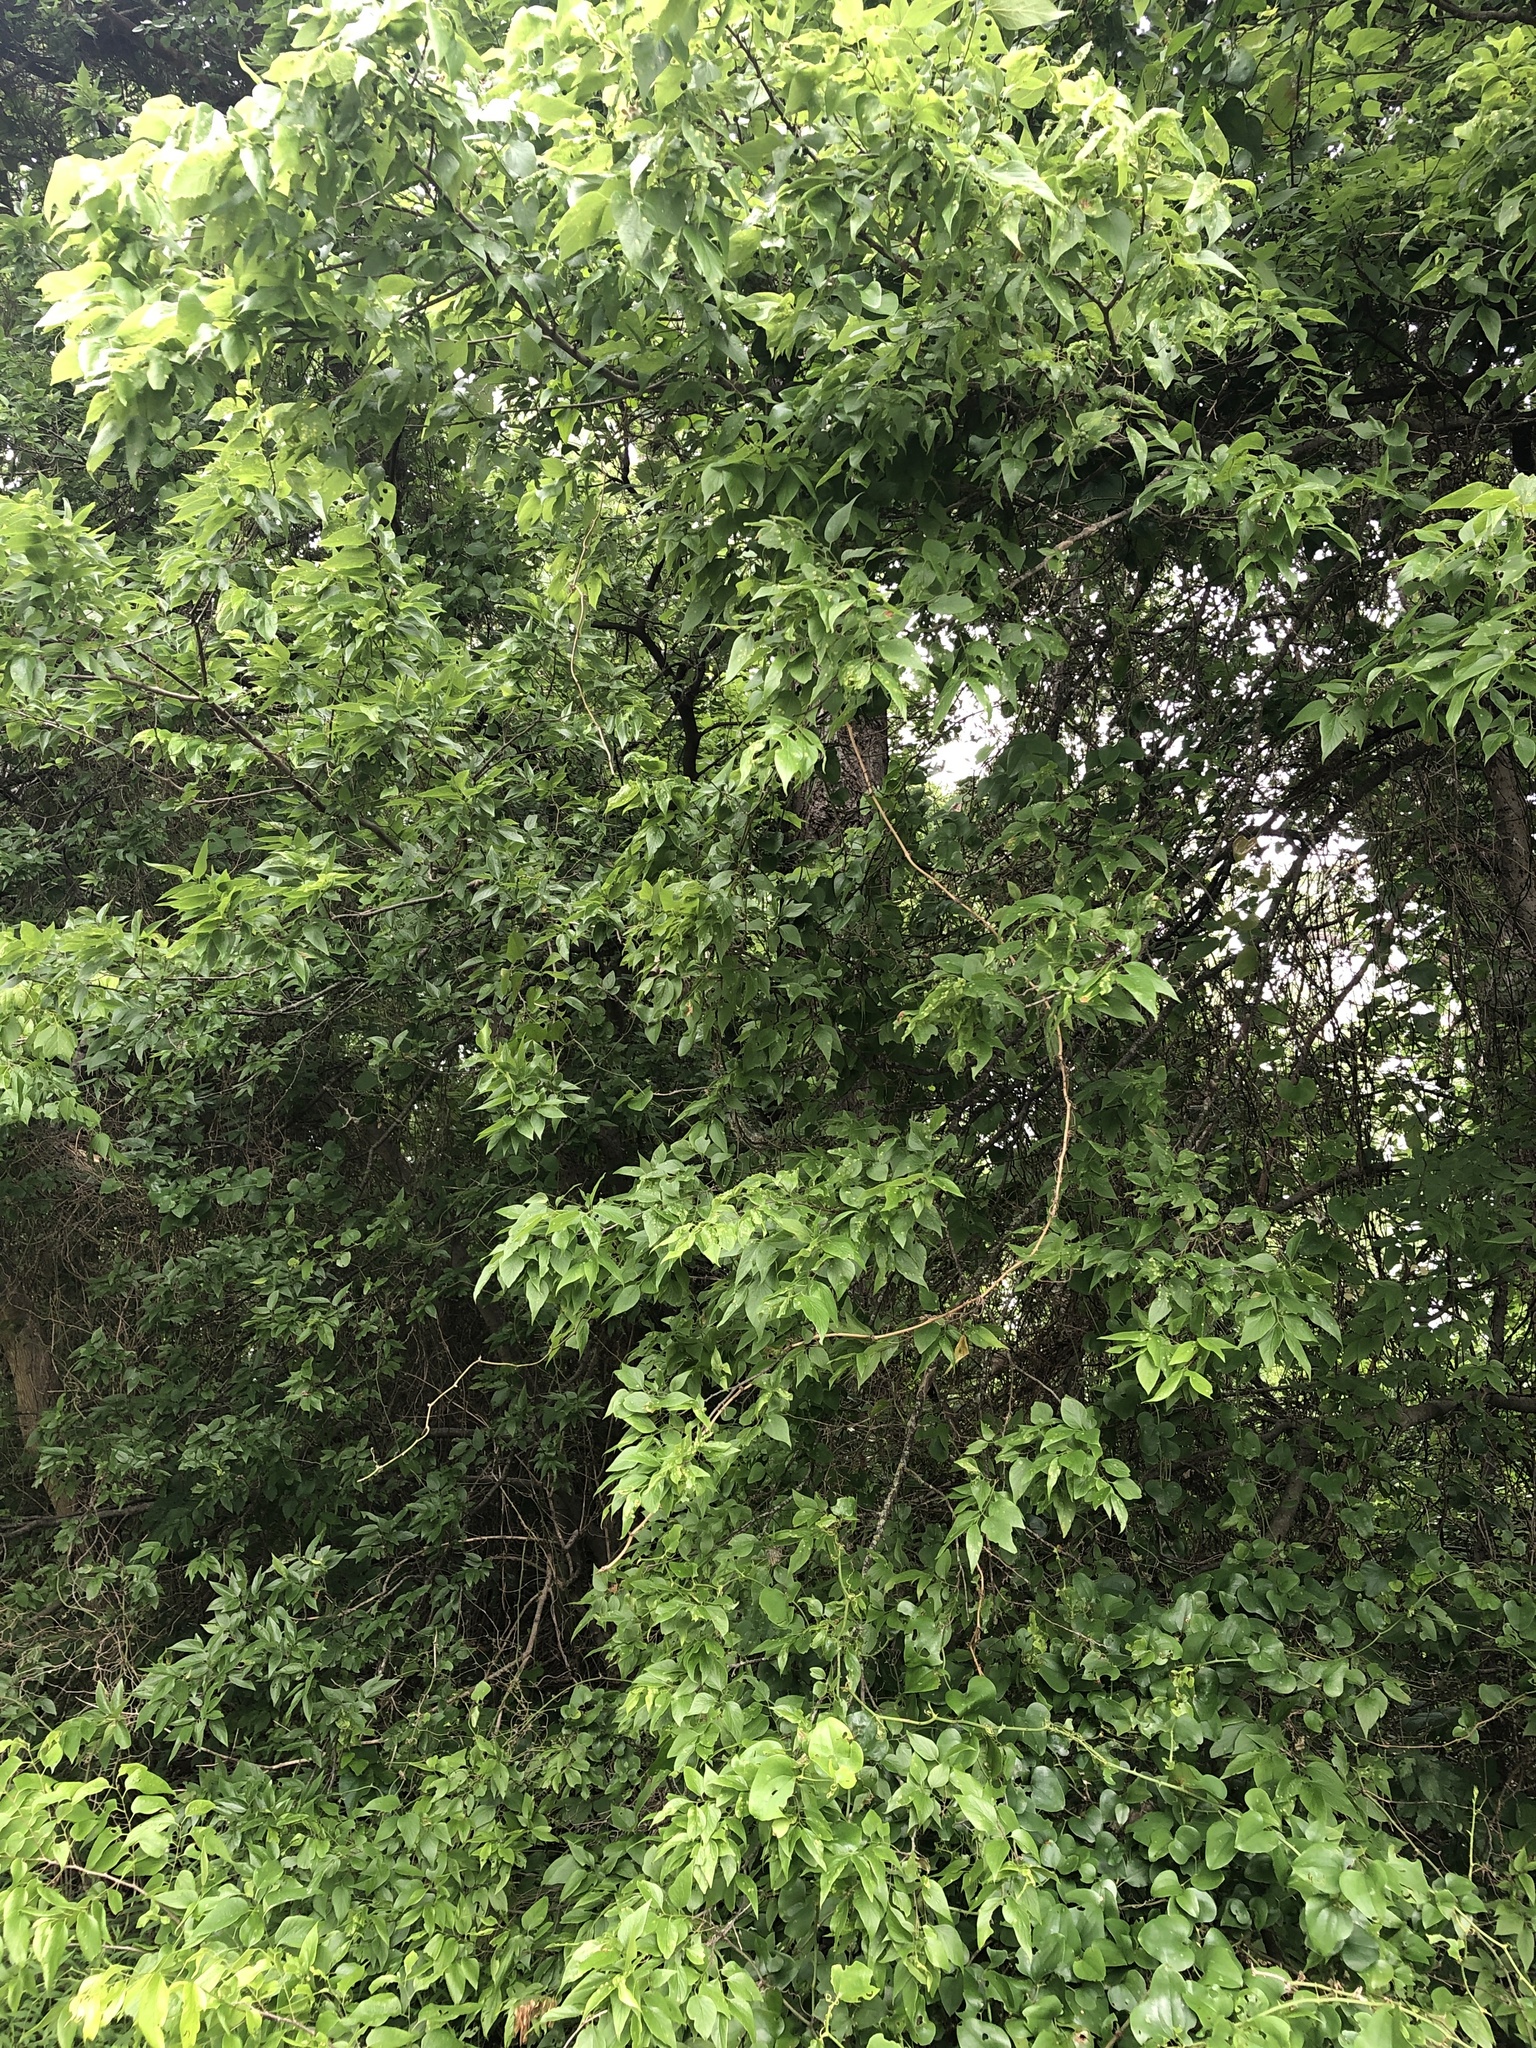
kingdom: Plantae
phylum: Tracheophyta
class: Magnoliopsida
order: Rosales
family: Cannabaceae
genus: Celtis
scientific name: Celtis laevigata
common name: Sugarberry
